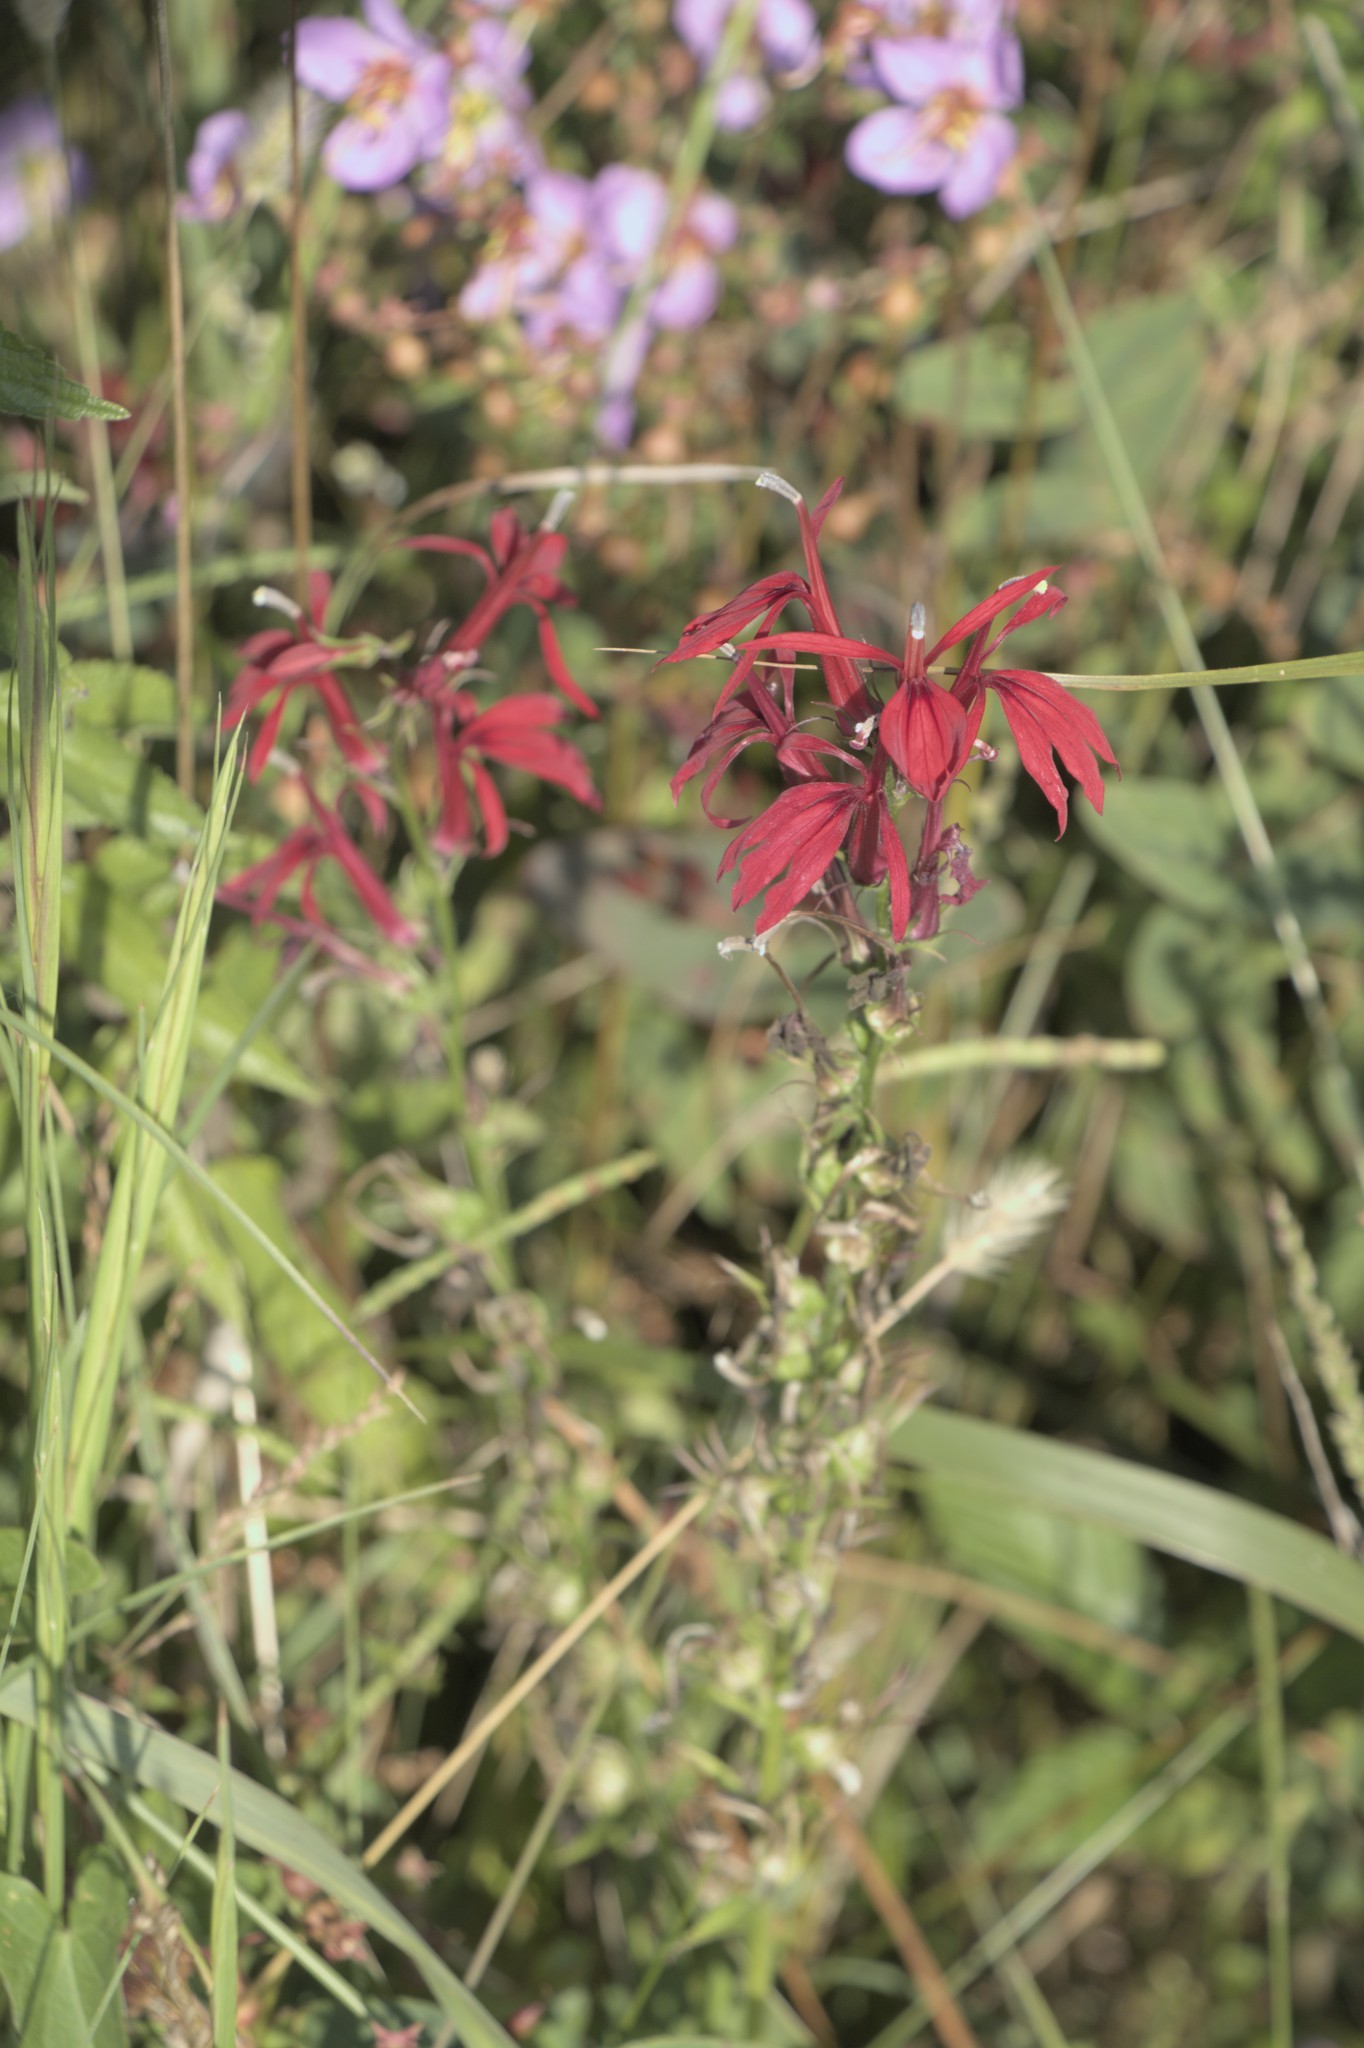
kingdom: Plantae
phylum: Tracheophyta
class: Magnoliopsida
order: Asterales
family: Campanulaceae
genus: Lobelia
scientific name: Lobelia cardinalis
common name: Cardinal flower
